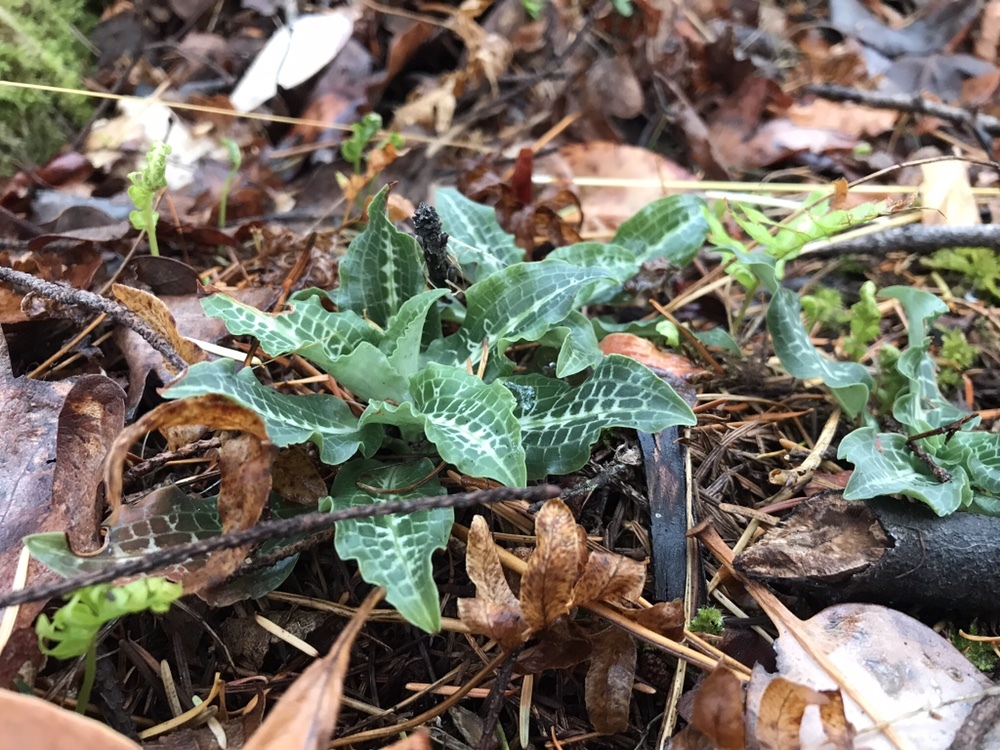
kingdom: Plantae
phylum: Tracheophyta
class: Liliopsida
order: Asparagales
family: Orchidaceae
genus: Goodyera
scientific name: Goodyera oblongifolia
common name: Giant rattlesnake-plantain
